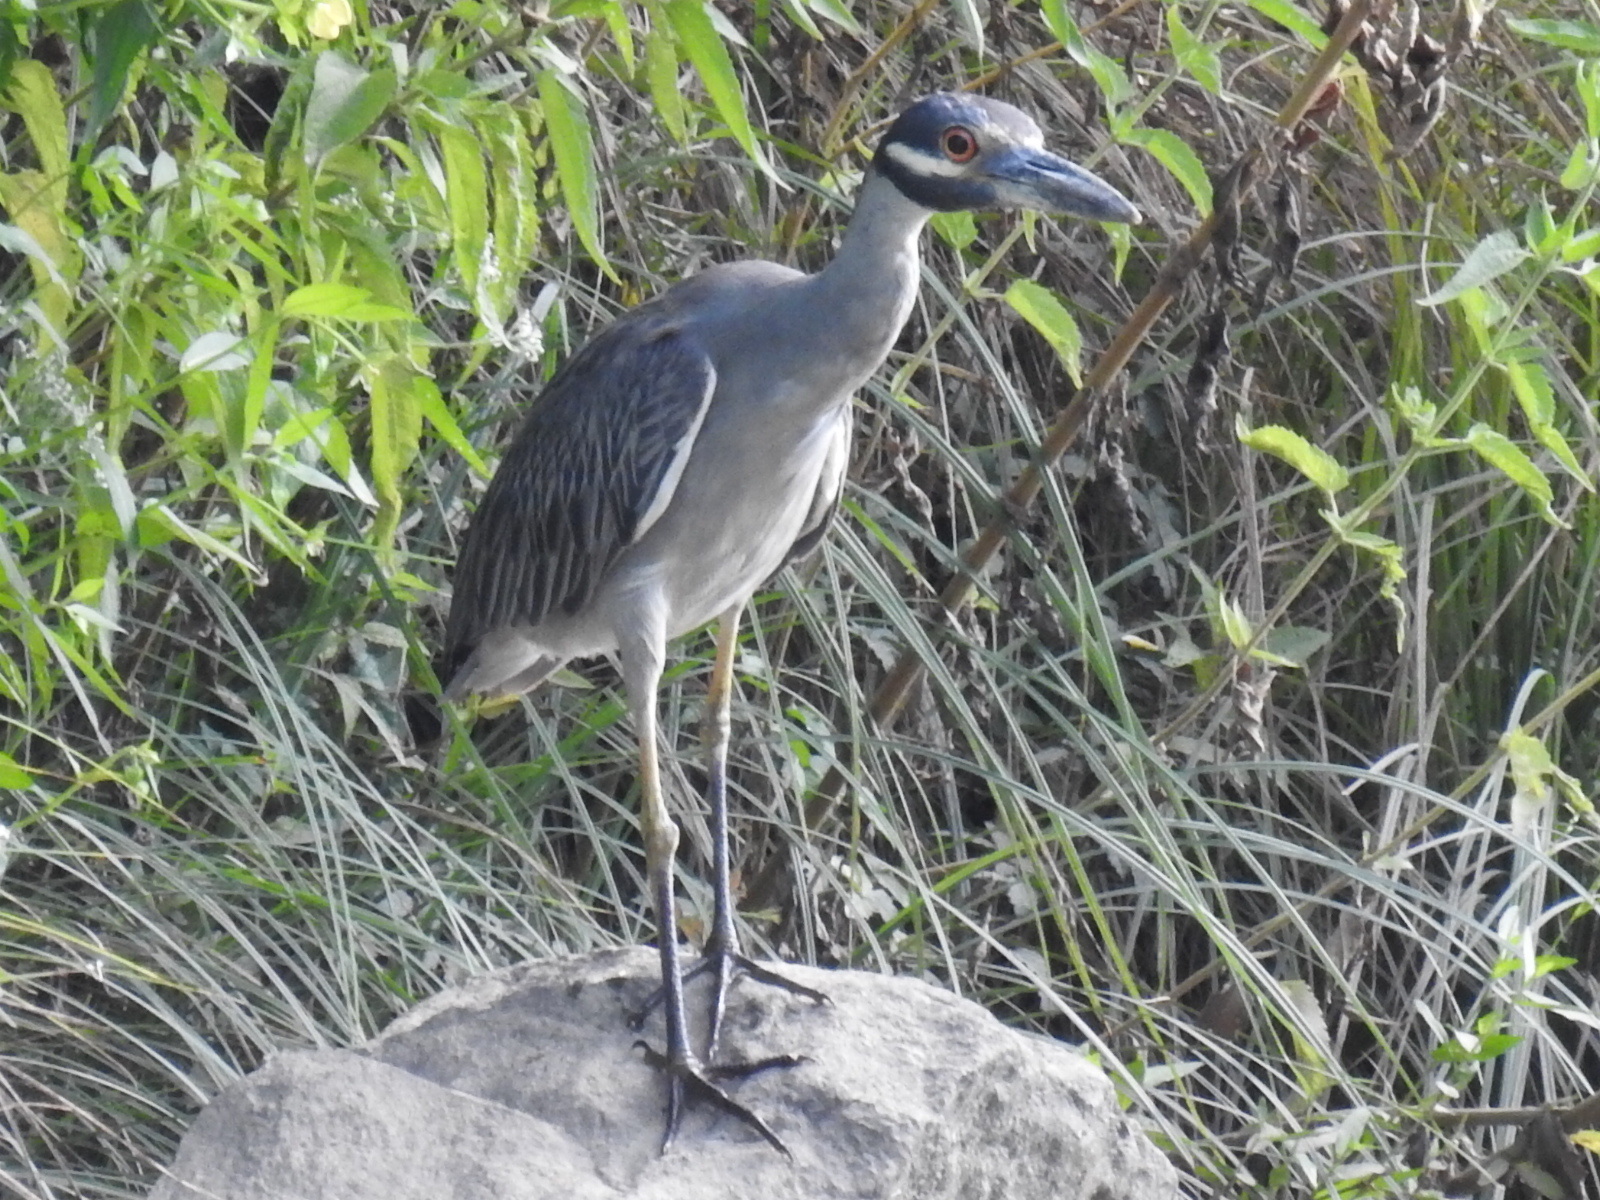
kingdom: Animalia
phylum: Chordata
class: Aves
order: Pelecaniformes
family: Ardeidae
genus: Nyctanassa
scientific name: Nyctanassa violacea
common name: Yellow-crowned night heron
